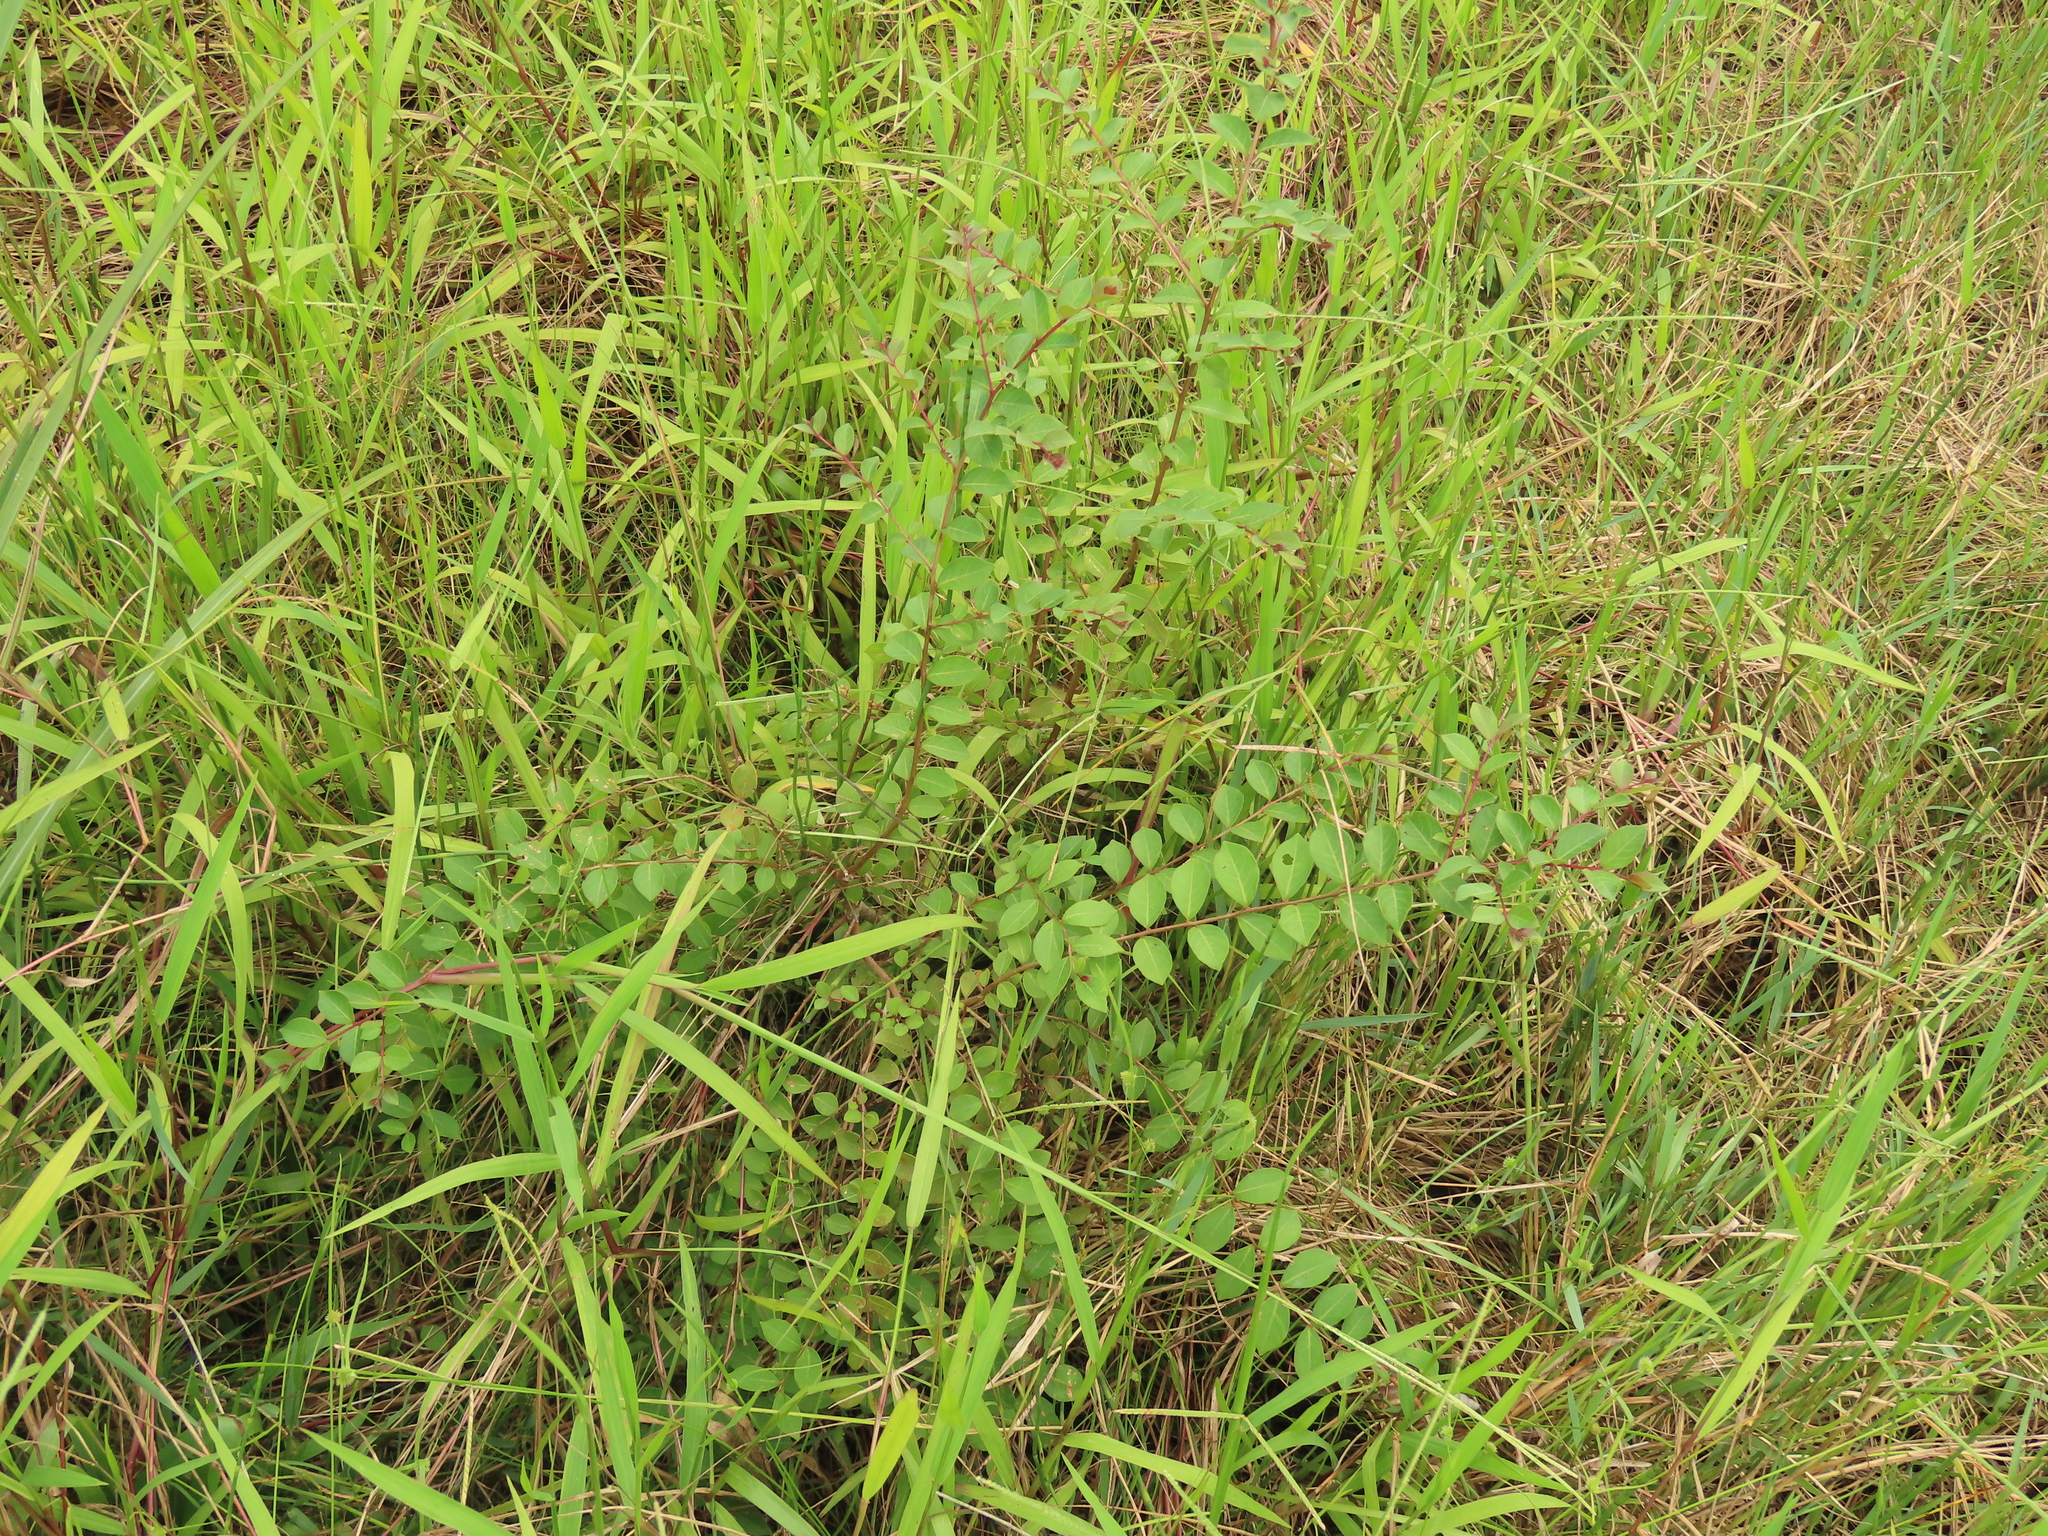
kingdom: Plantae
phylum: Tracheophyta
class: Magnoliopsida
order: Myrtales
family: Lythraceae
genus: Lagerstroemia
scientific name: Lagerstroemia subcostata
